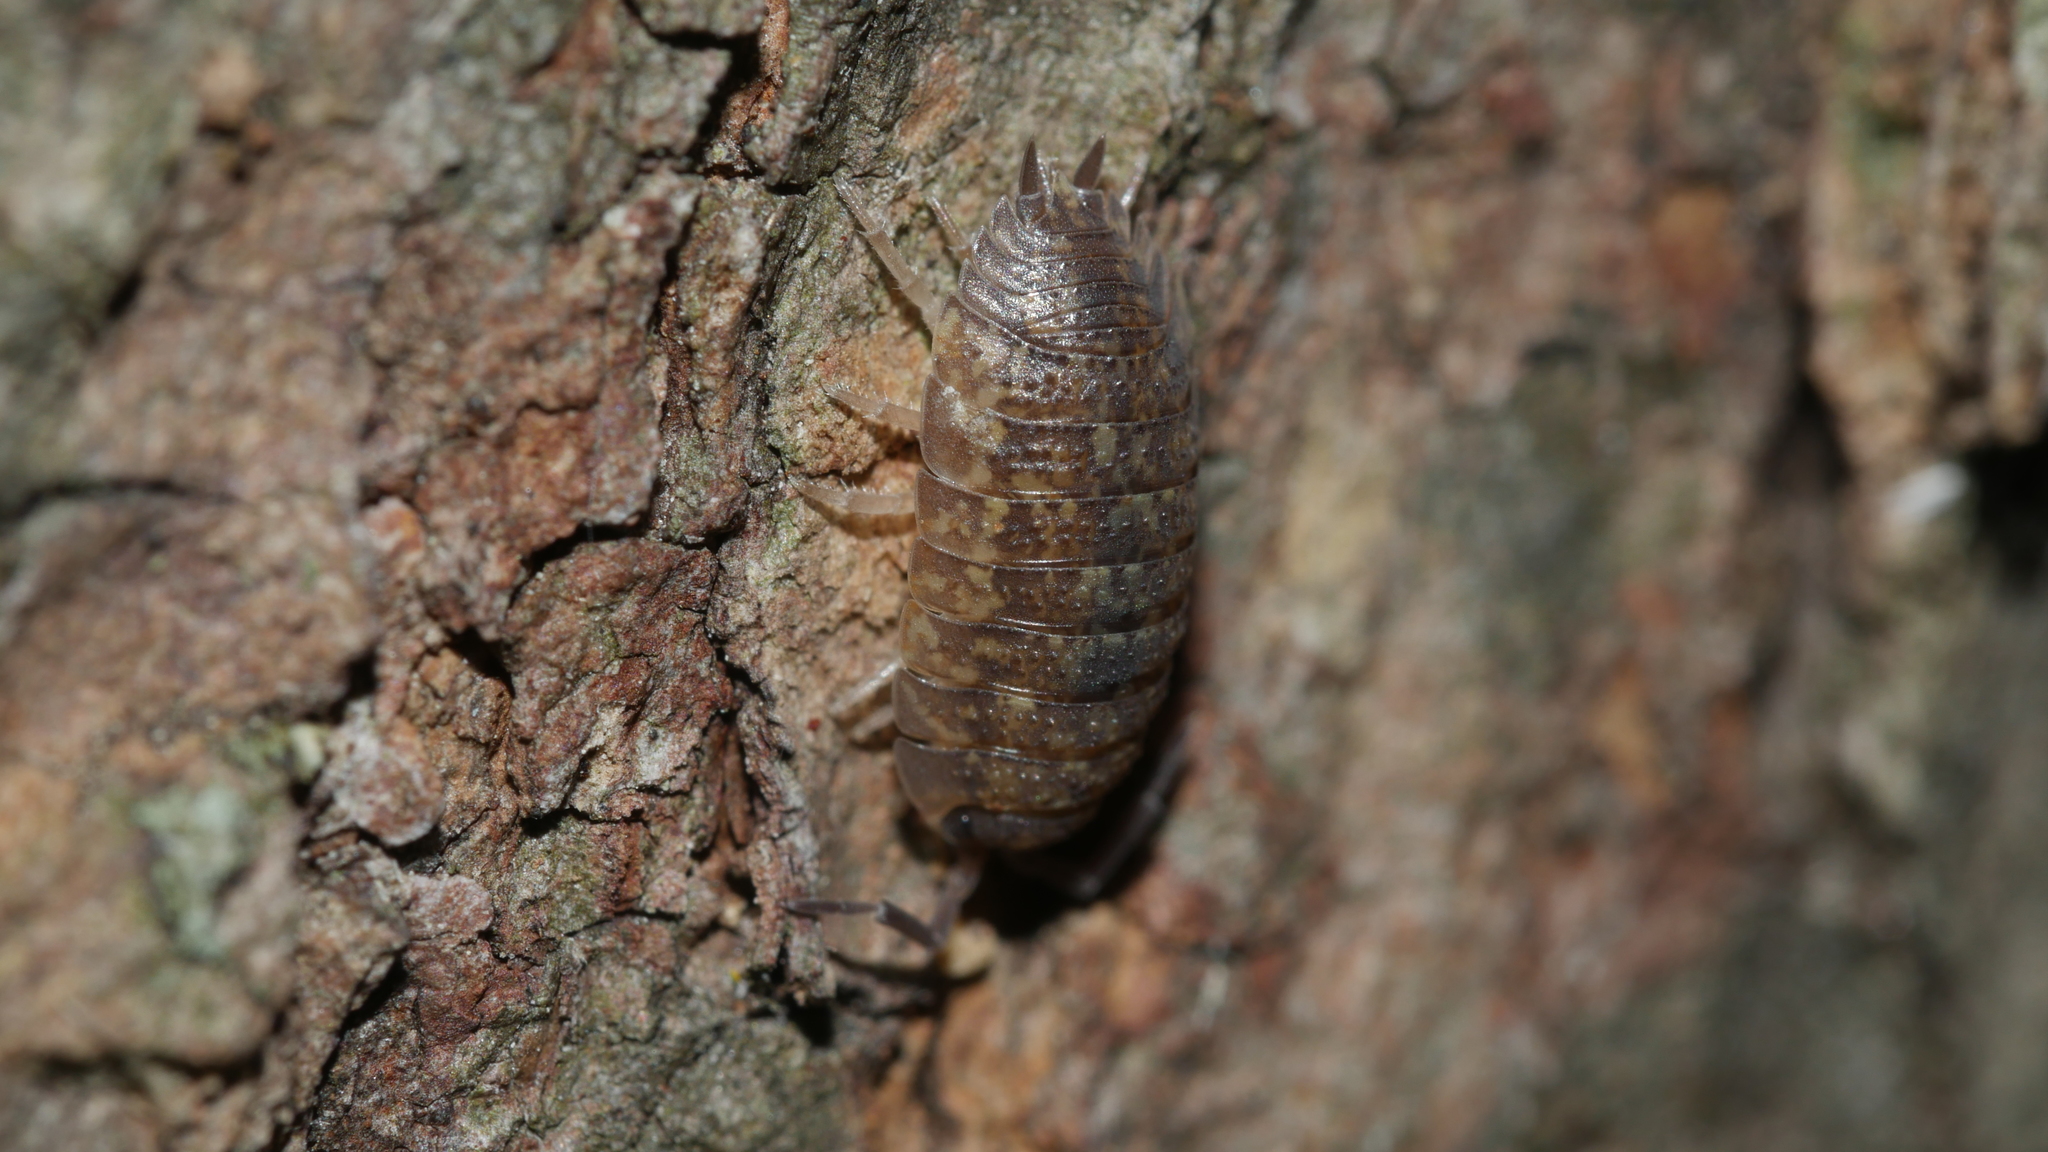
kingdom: Animalia
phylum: Arthropoda
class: Malacostraca
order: Isopoda
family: Porcellionidae
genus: Porcellio
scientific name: Porcellio scaber
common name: Common rough woodlouse
